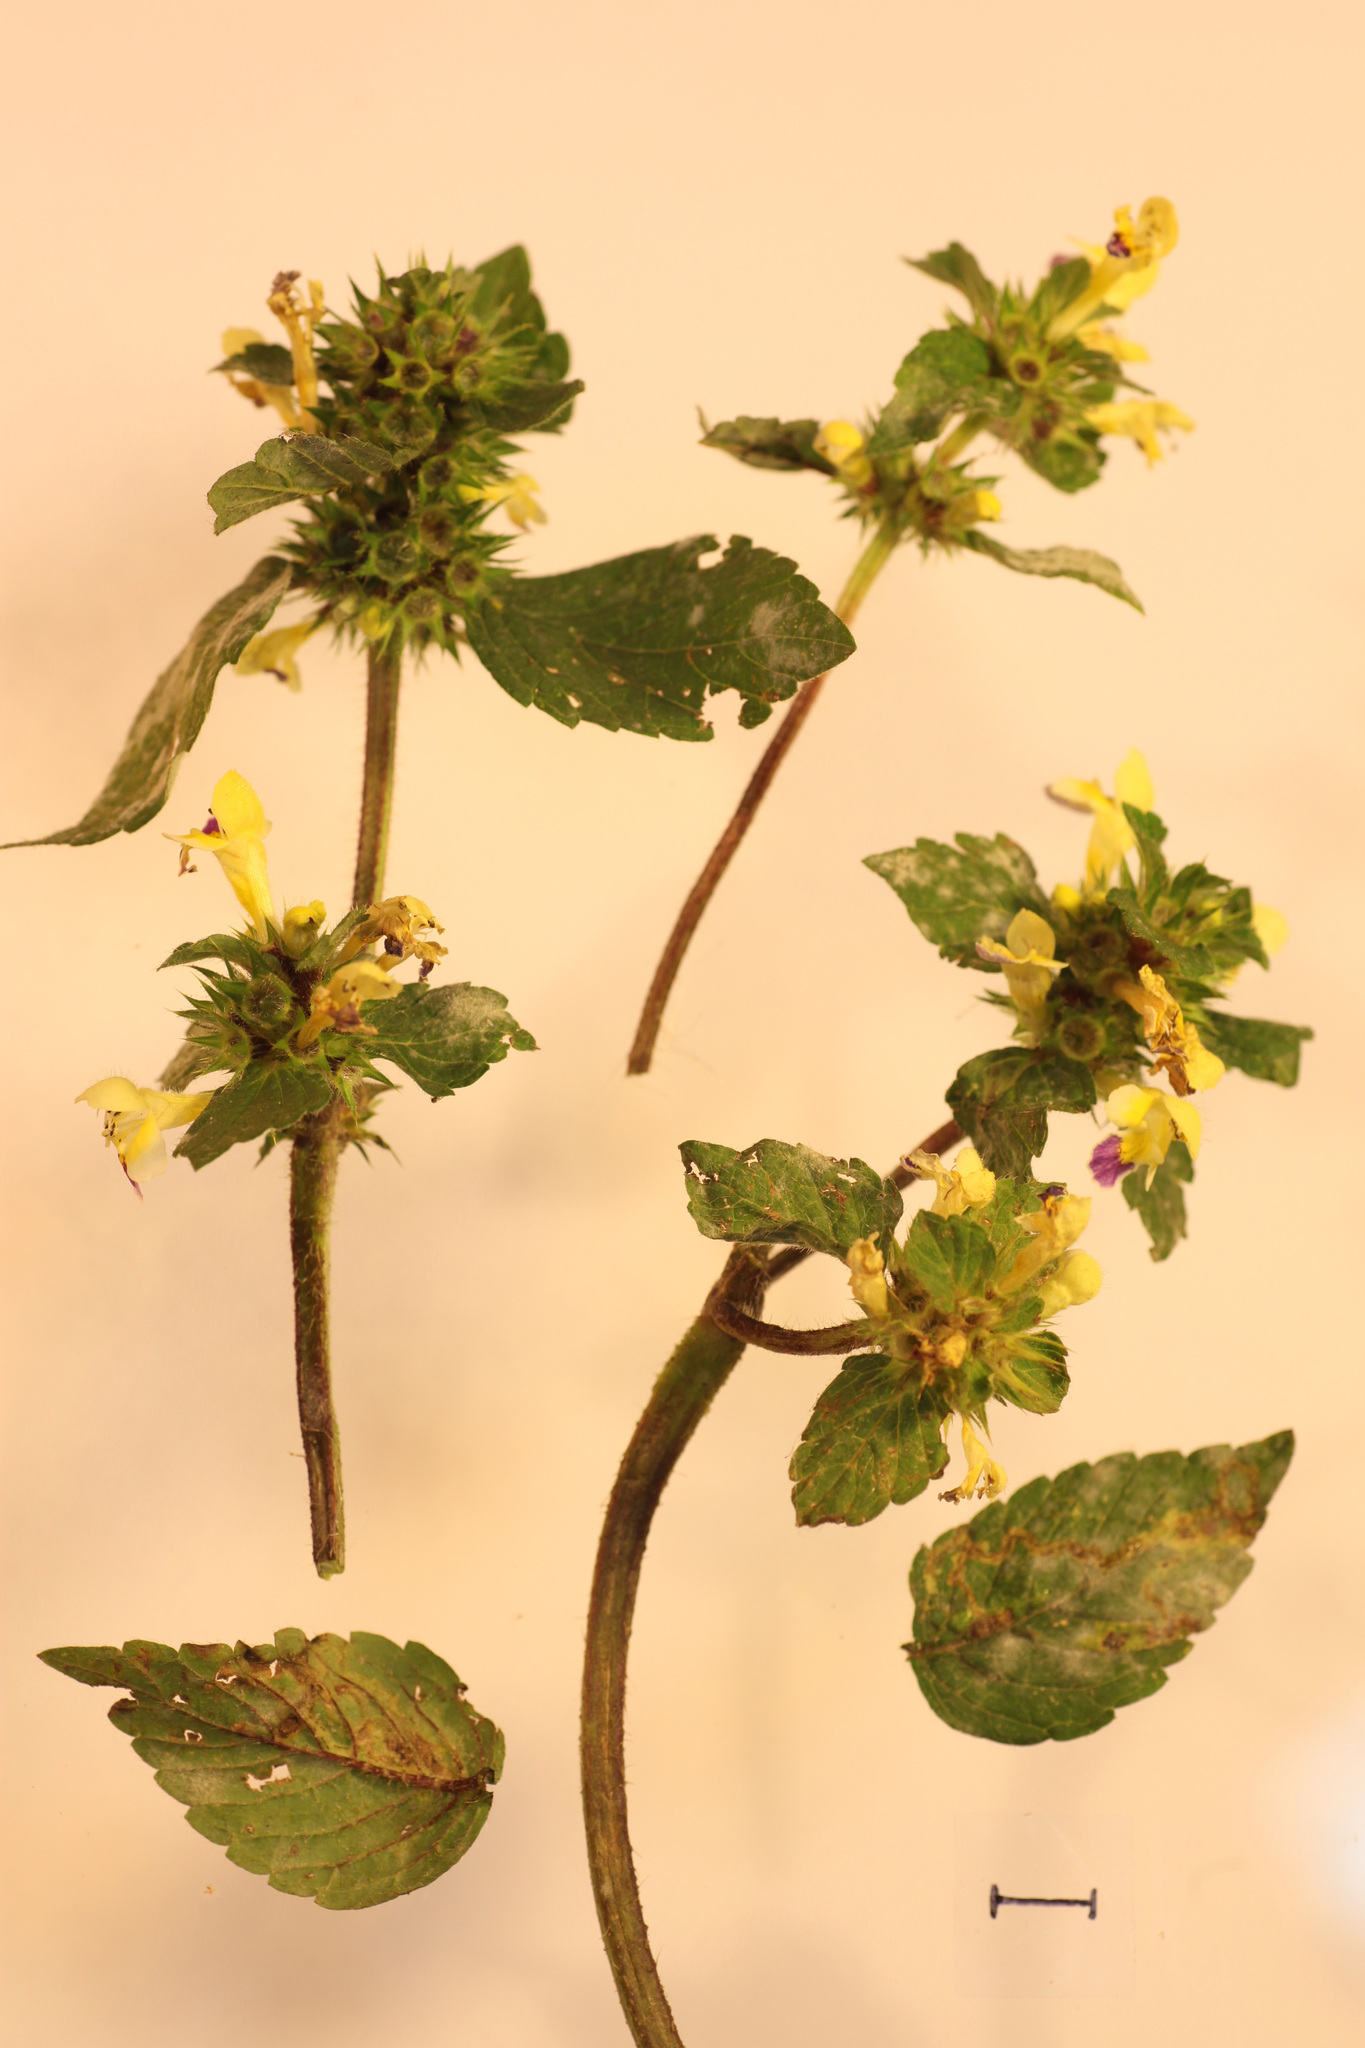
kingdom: Plantae
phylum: Tracheophyta
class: Magnoliopsida
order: Lamiales
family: Lamiaceae
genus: Galeopsis
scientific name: Galeopsis speciosa
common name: Large-flowered hemp-nettle
